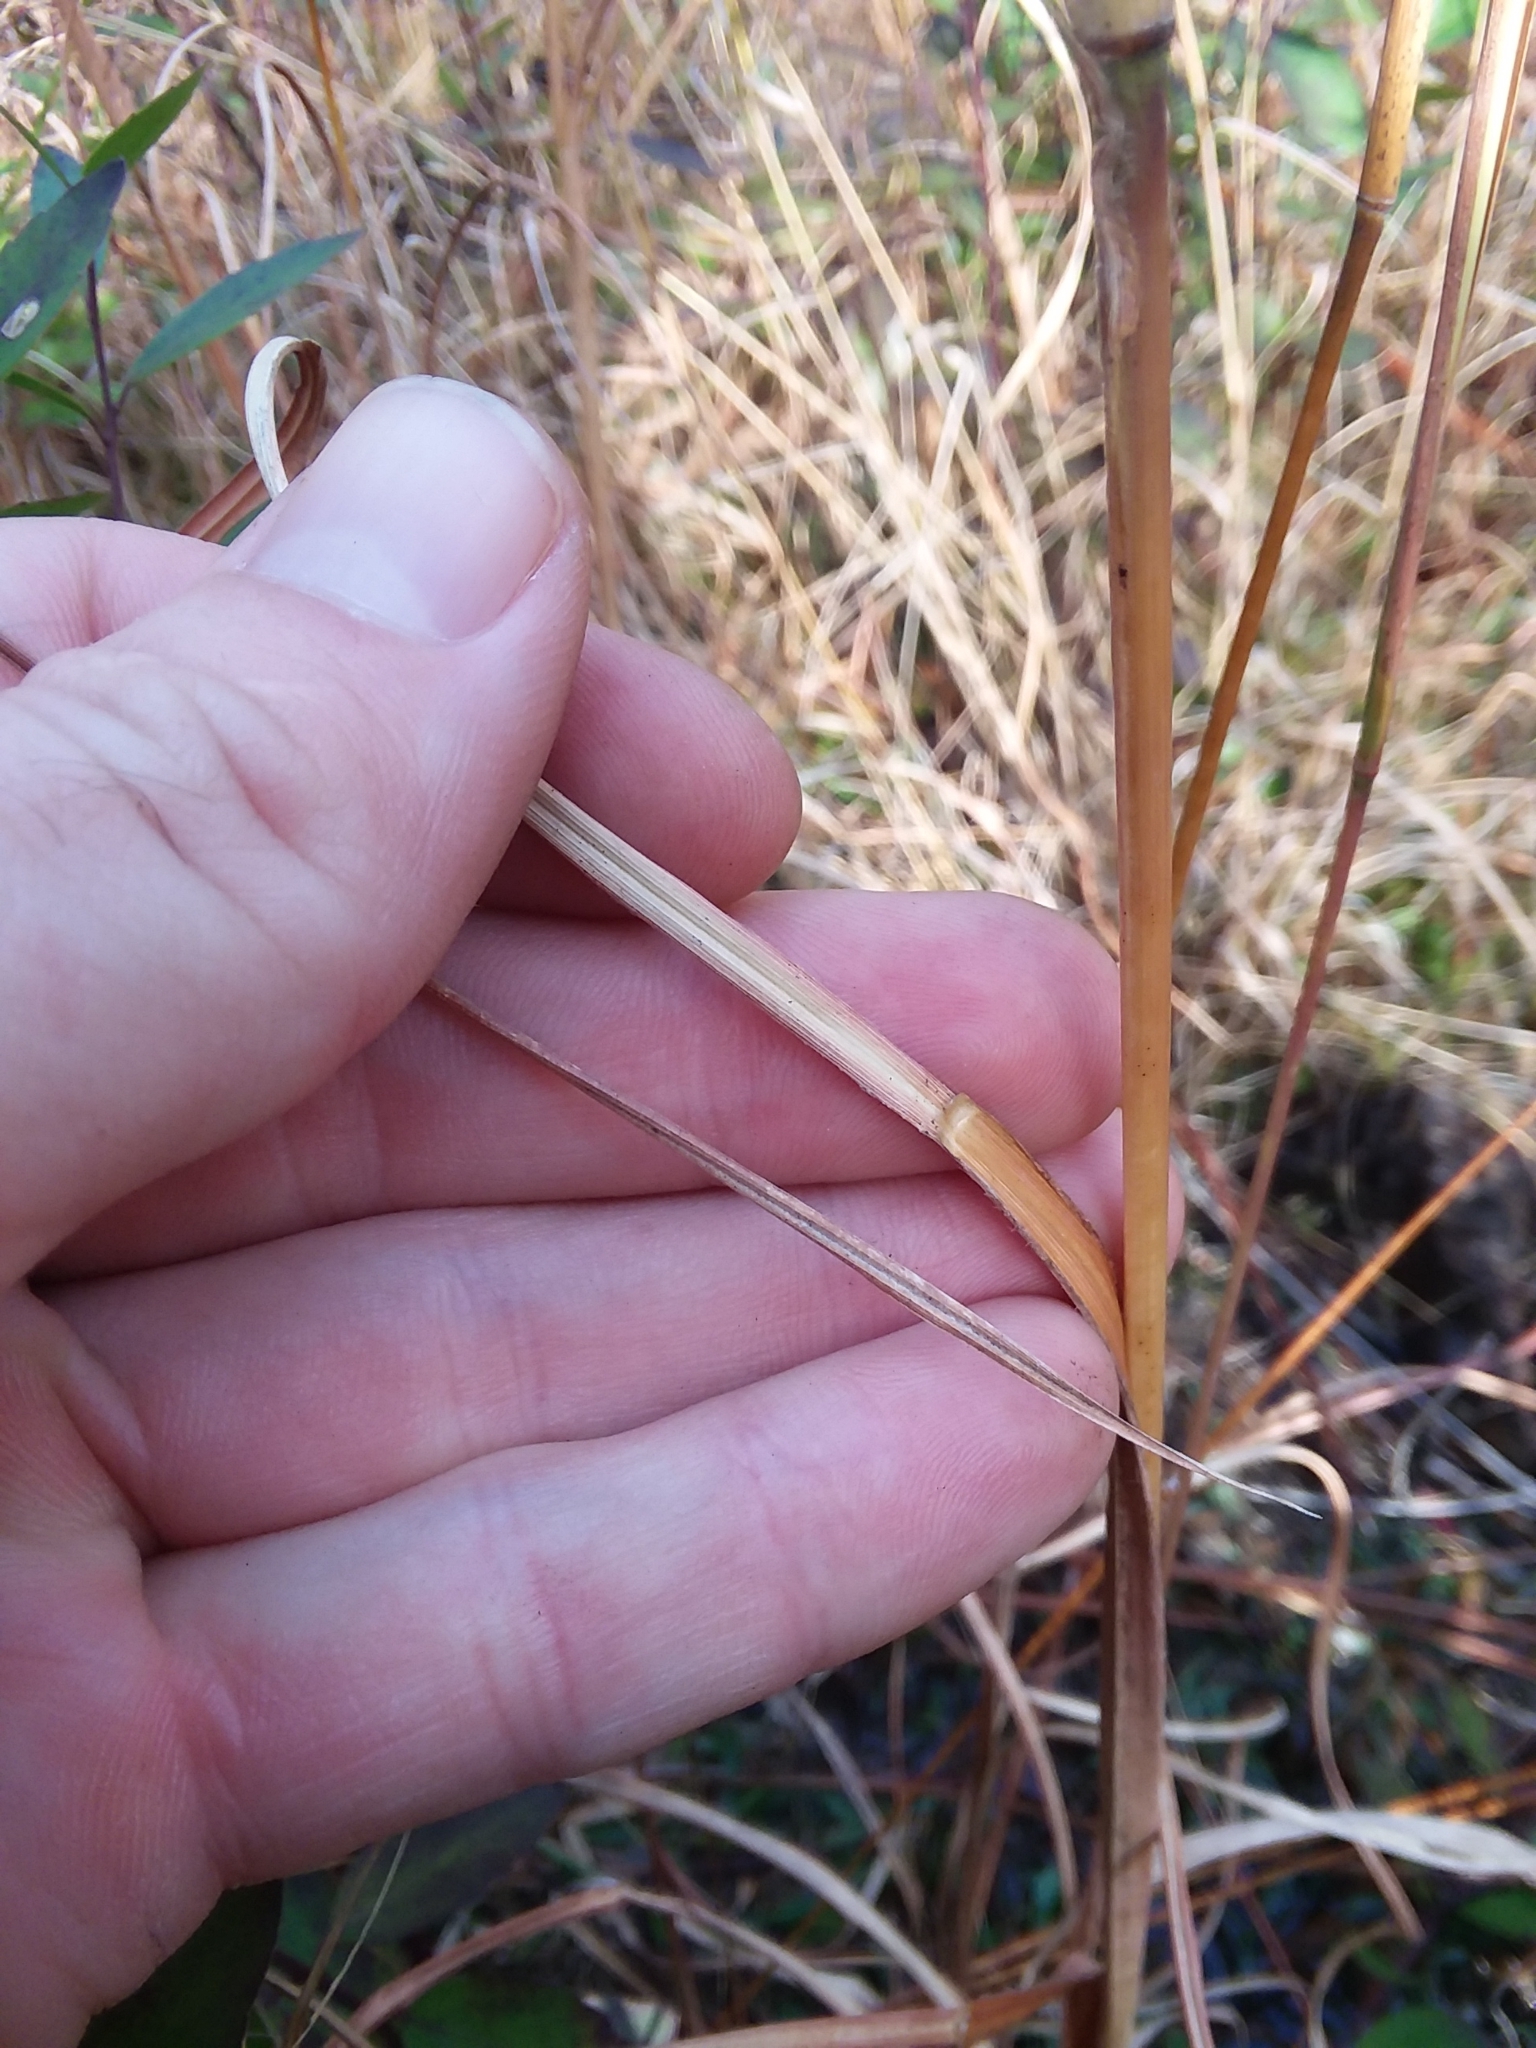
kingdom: Plantae
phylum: Tracheophyta
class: Liliopsida
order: Poales
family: Poaceae
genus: Andropogon
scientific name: Andropogon glomeratus
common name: Bushy beard grass
